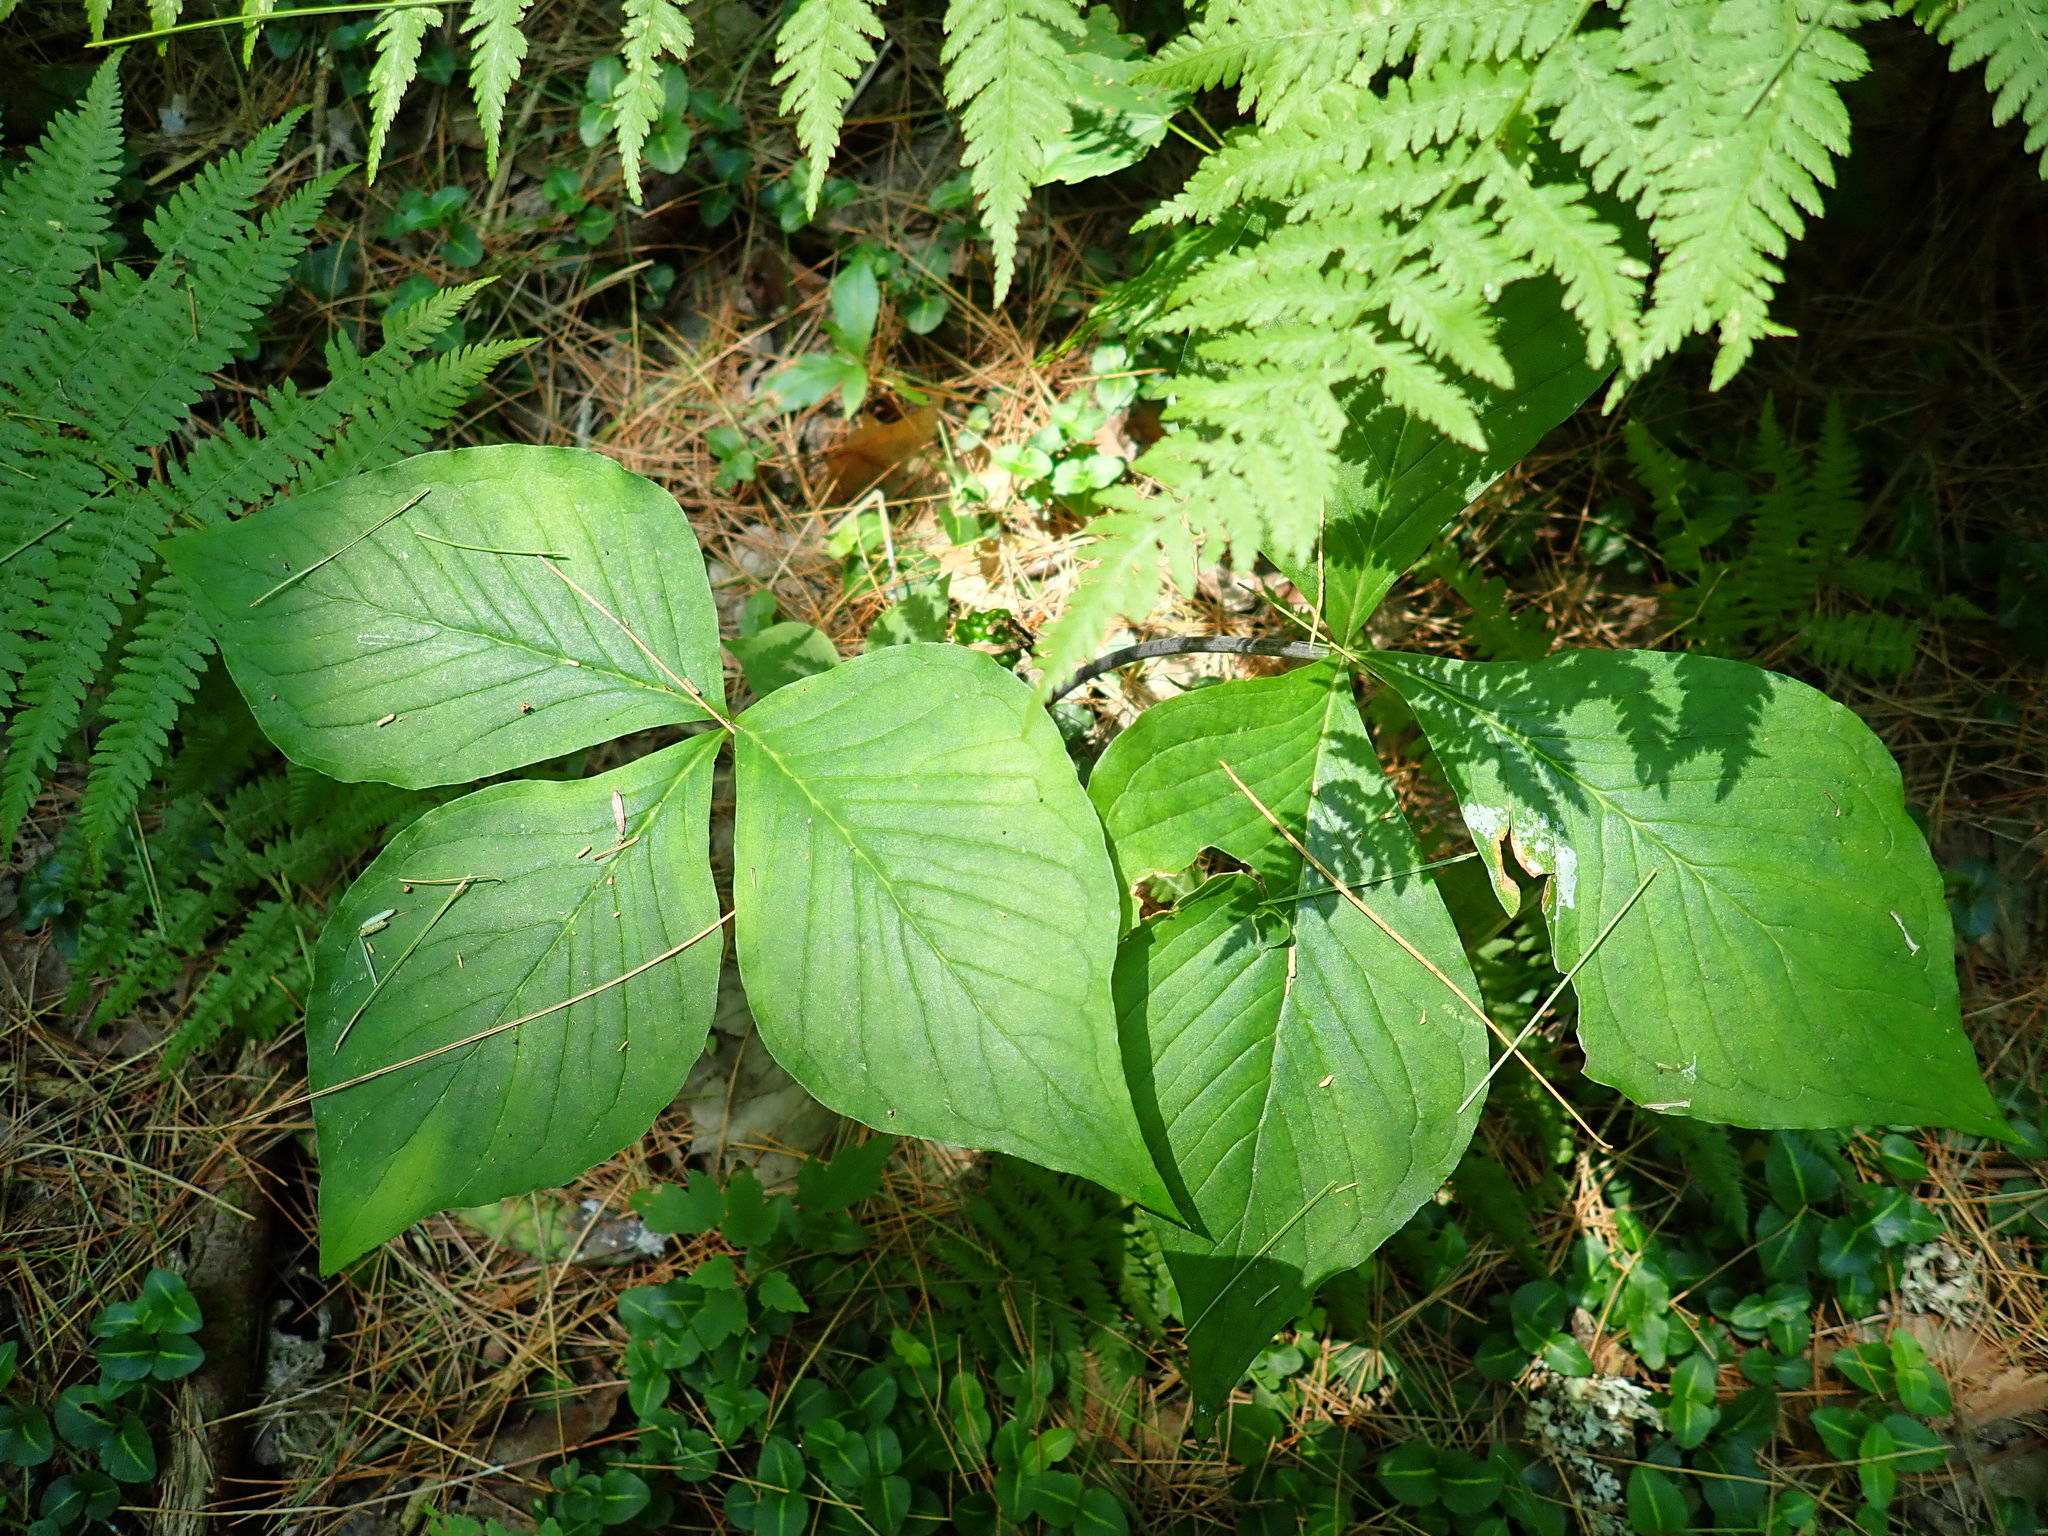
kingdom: Plantae
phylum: Tracheophyta
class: Liliopsida
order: Alismatales
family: Araceae
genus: Arisaema
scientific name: Arisaema triphyllum
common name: Jack-in-the-pulpit
